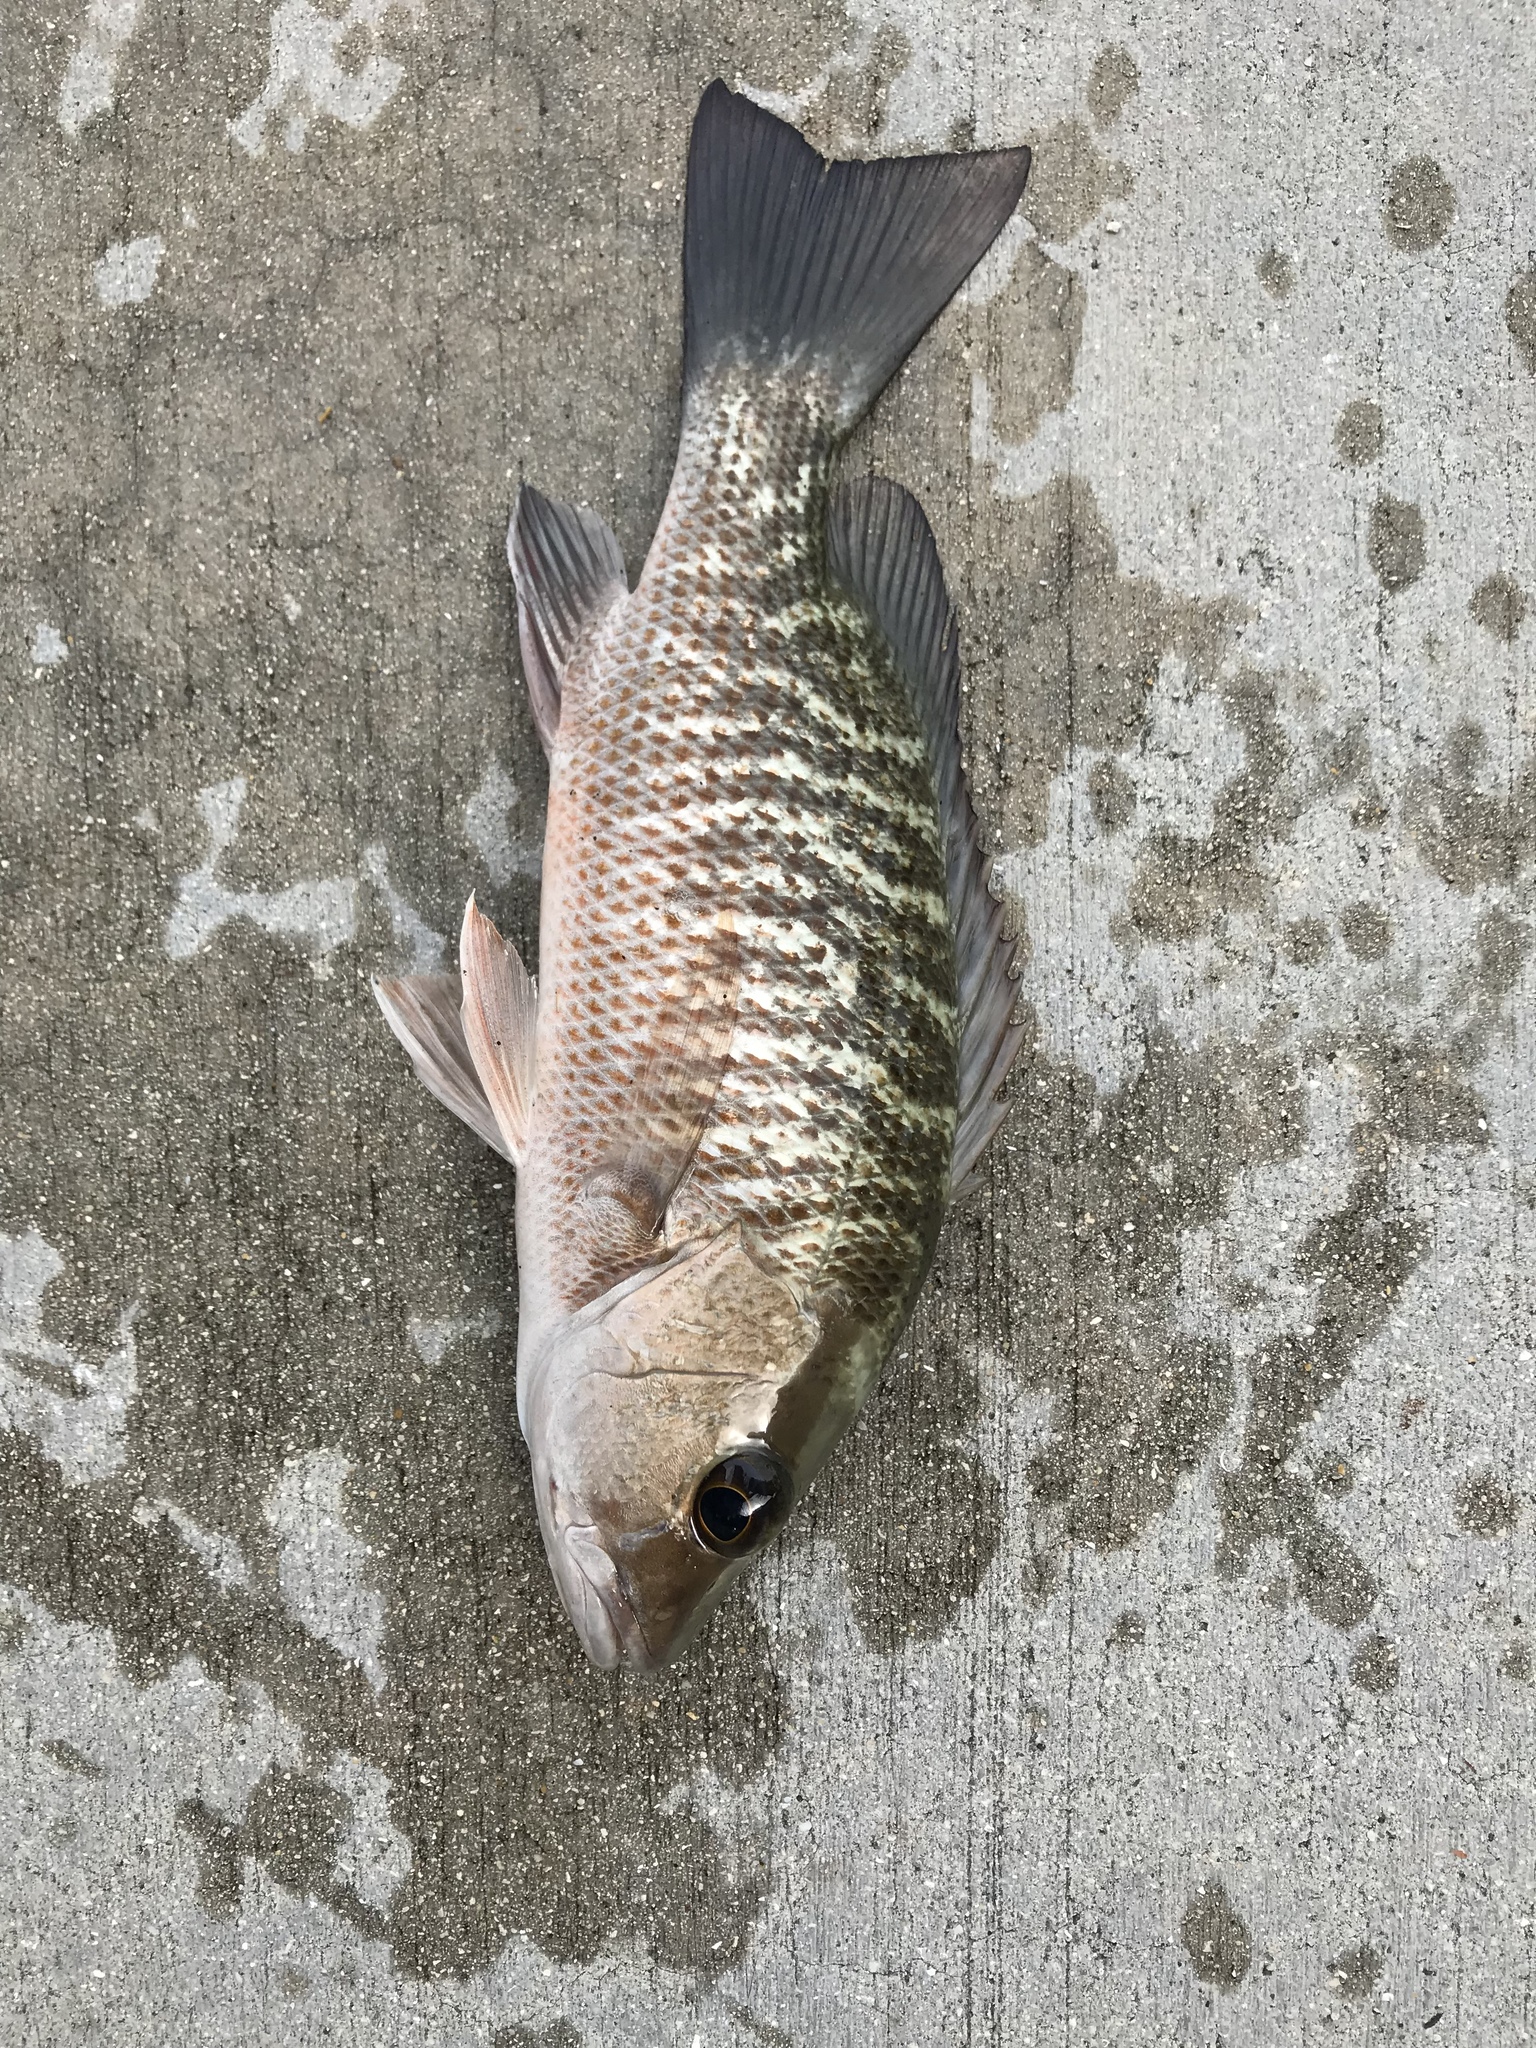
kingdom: Animalia
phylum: Chordata
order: Perciformes
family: Lutjanidae
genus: Lutjanus
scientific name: Lutjanus griseus
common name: Gray snapper
